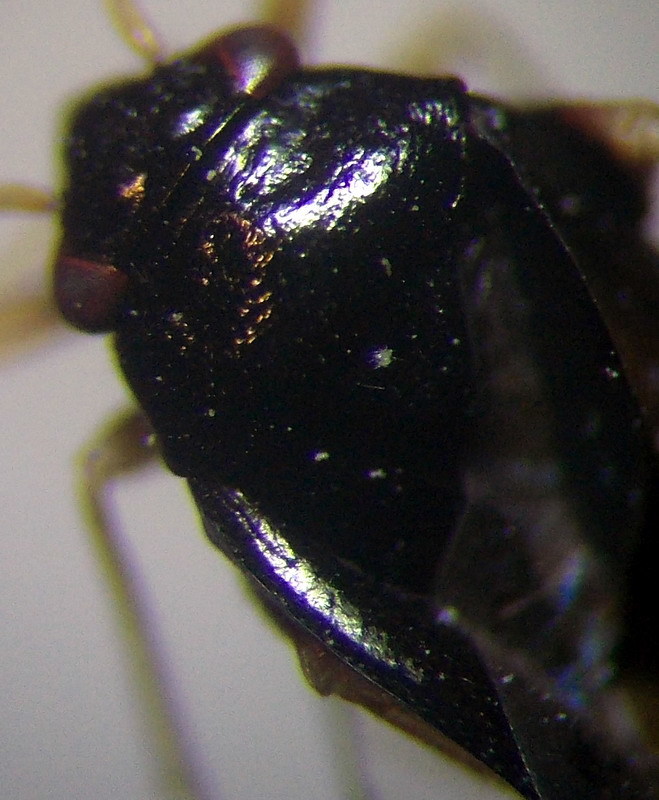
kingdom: Animalia
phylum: Arthropoda
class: Insecta
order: Hemiptera
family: Miridae
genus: Halticus
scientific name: Halticus apterus
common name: Fleahopper
